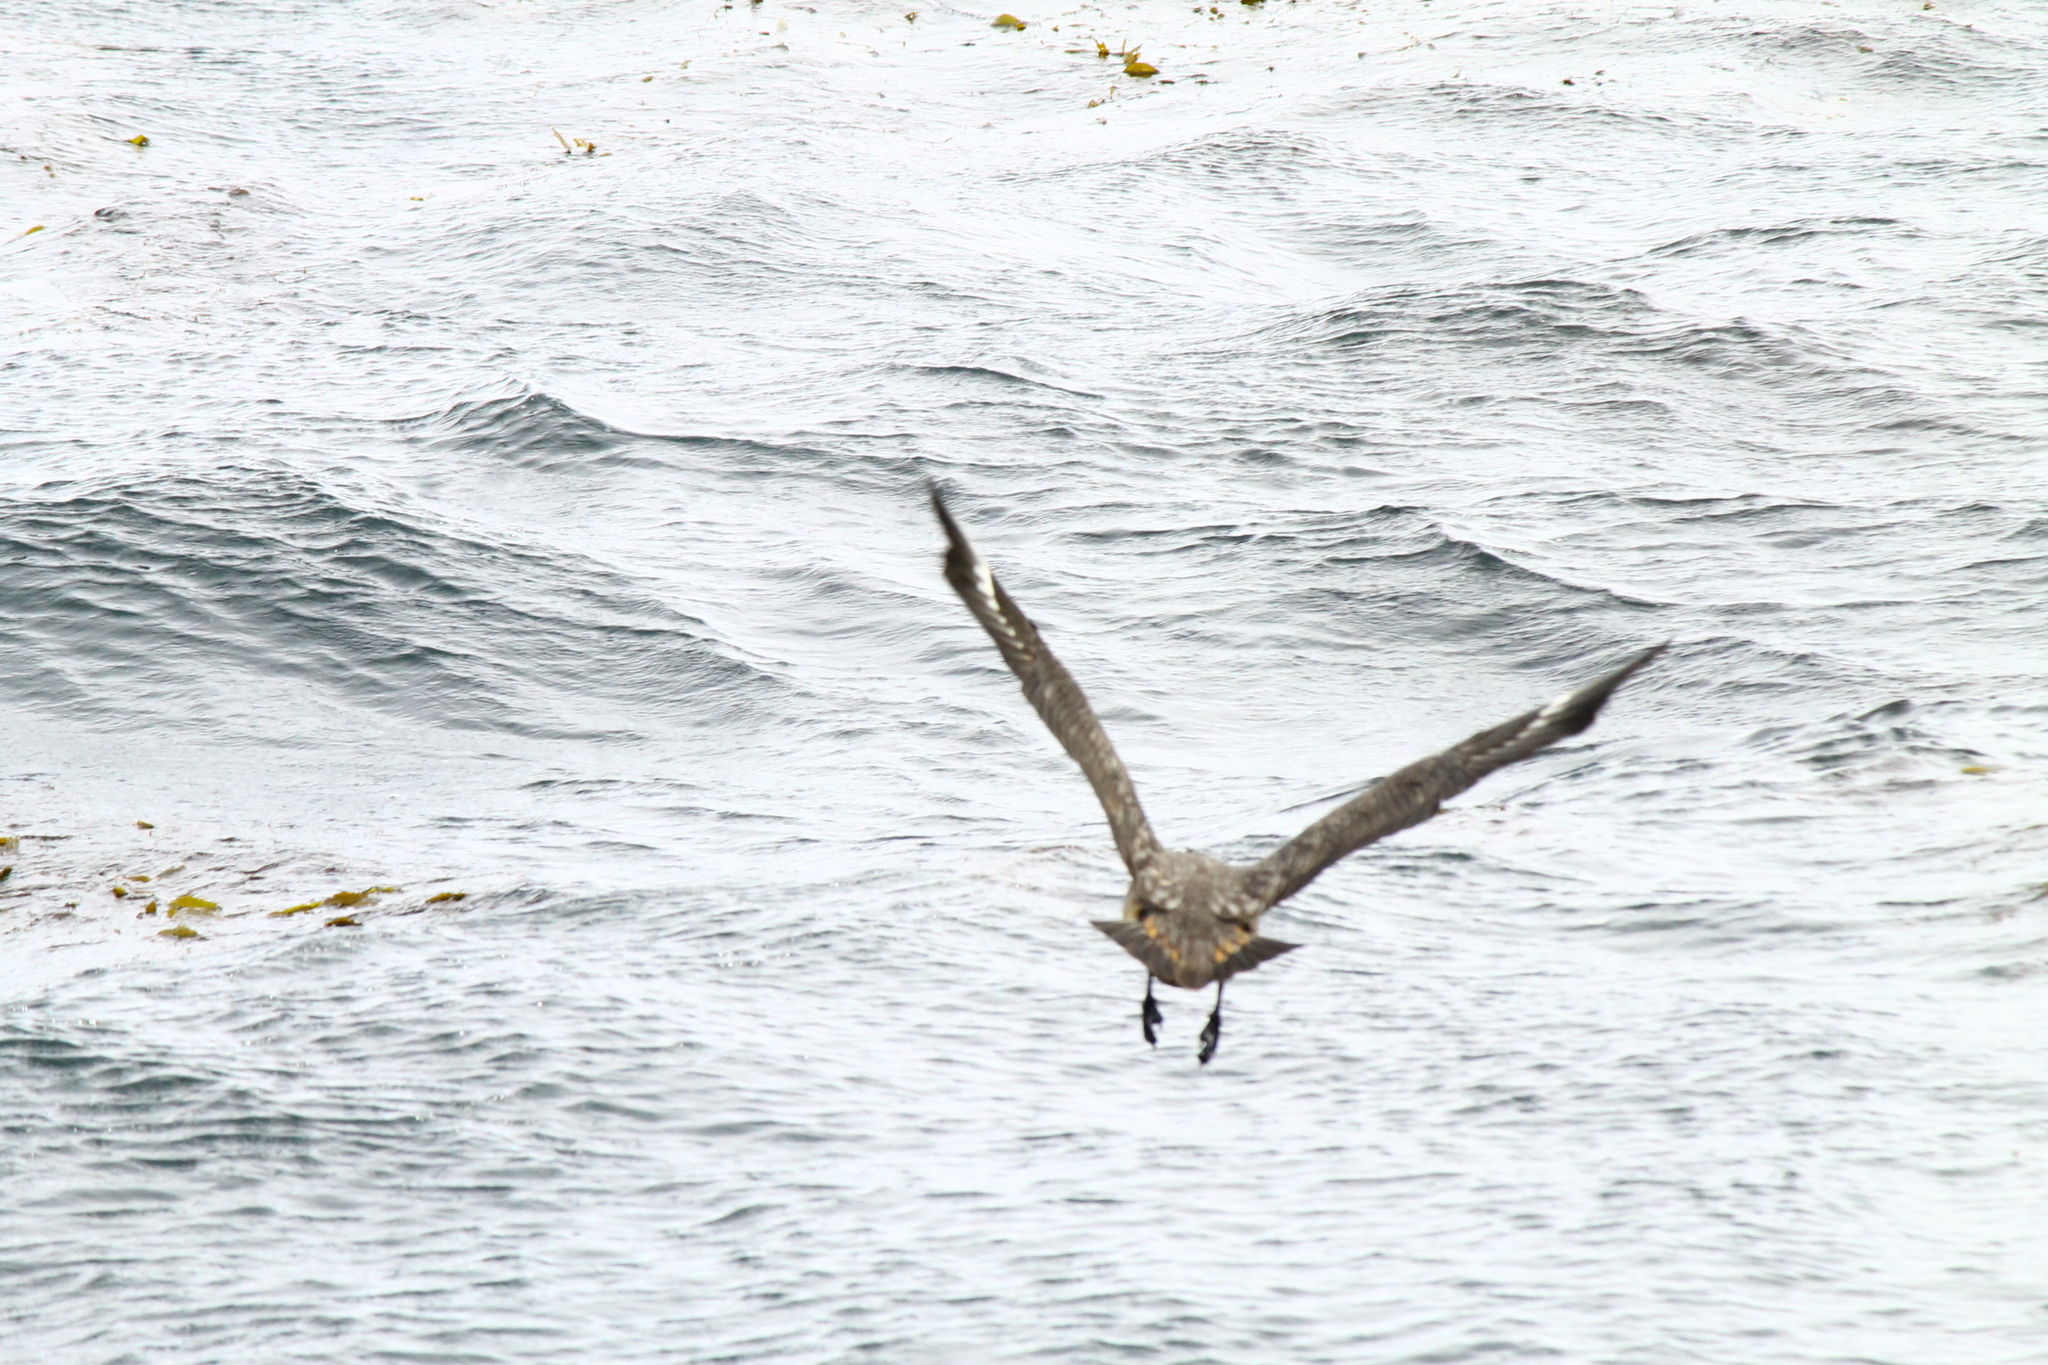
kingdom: Animalia
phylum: Chordata
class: Aves
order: Charadriiformes
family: Stercorariidae
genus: Stercorarius
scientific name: Stercorarius antarcticus
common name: Brown skua
